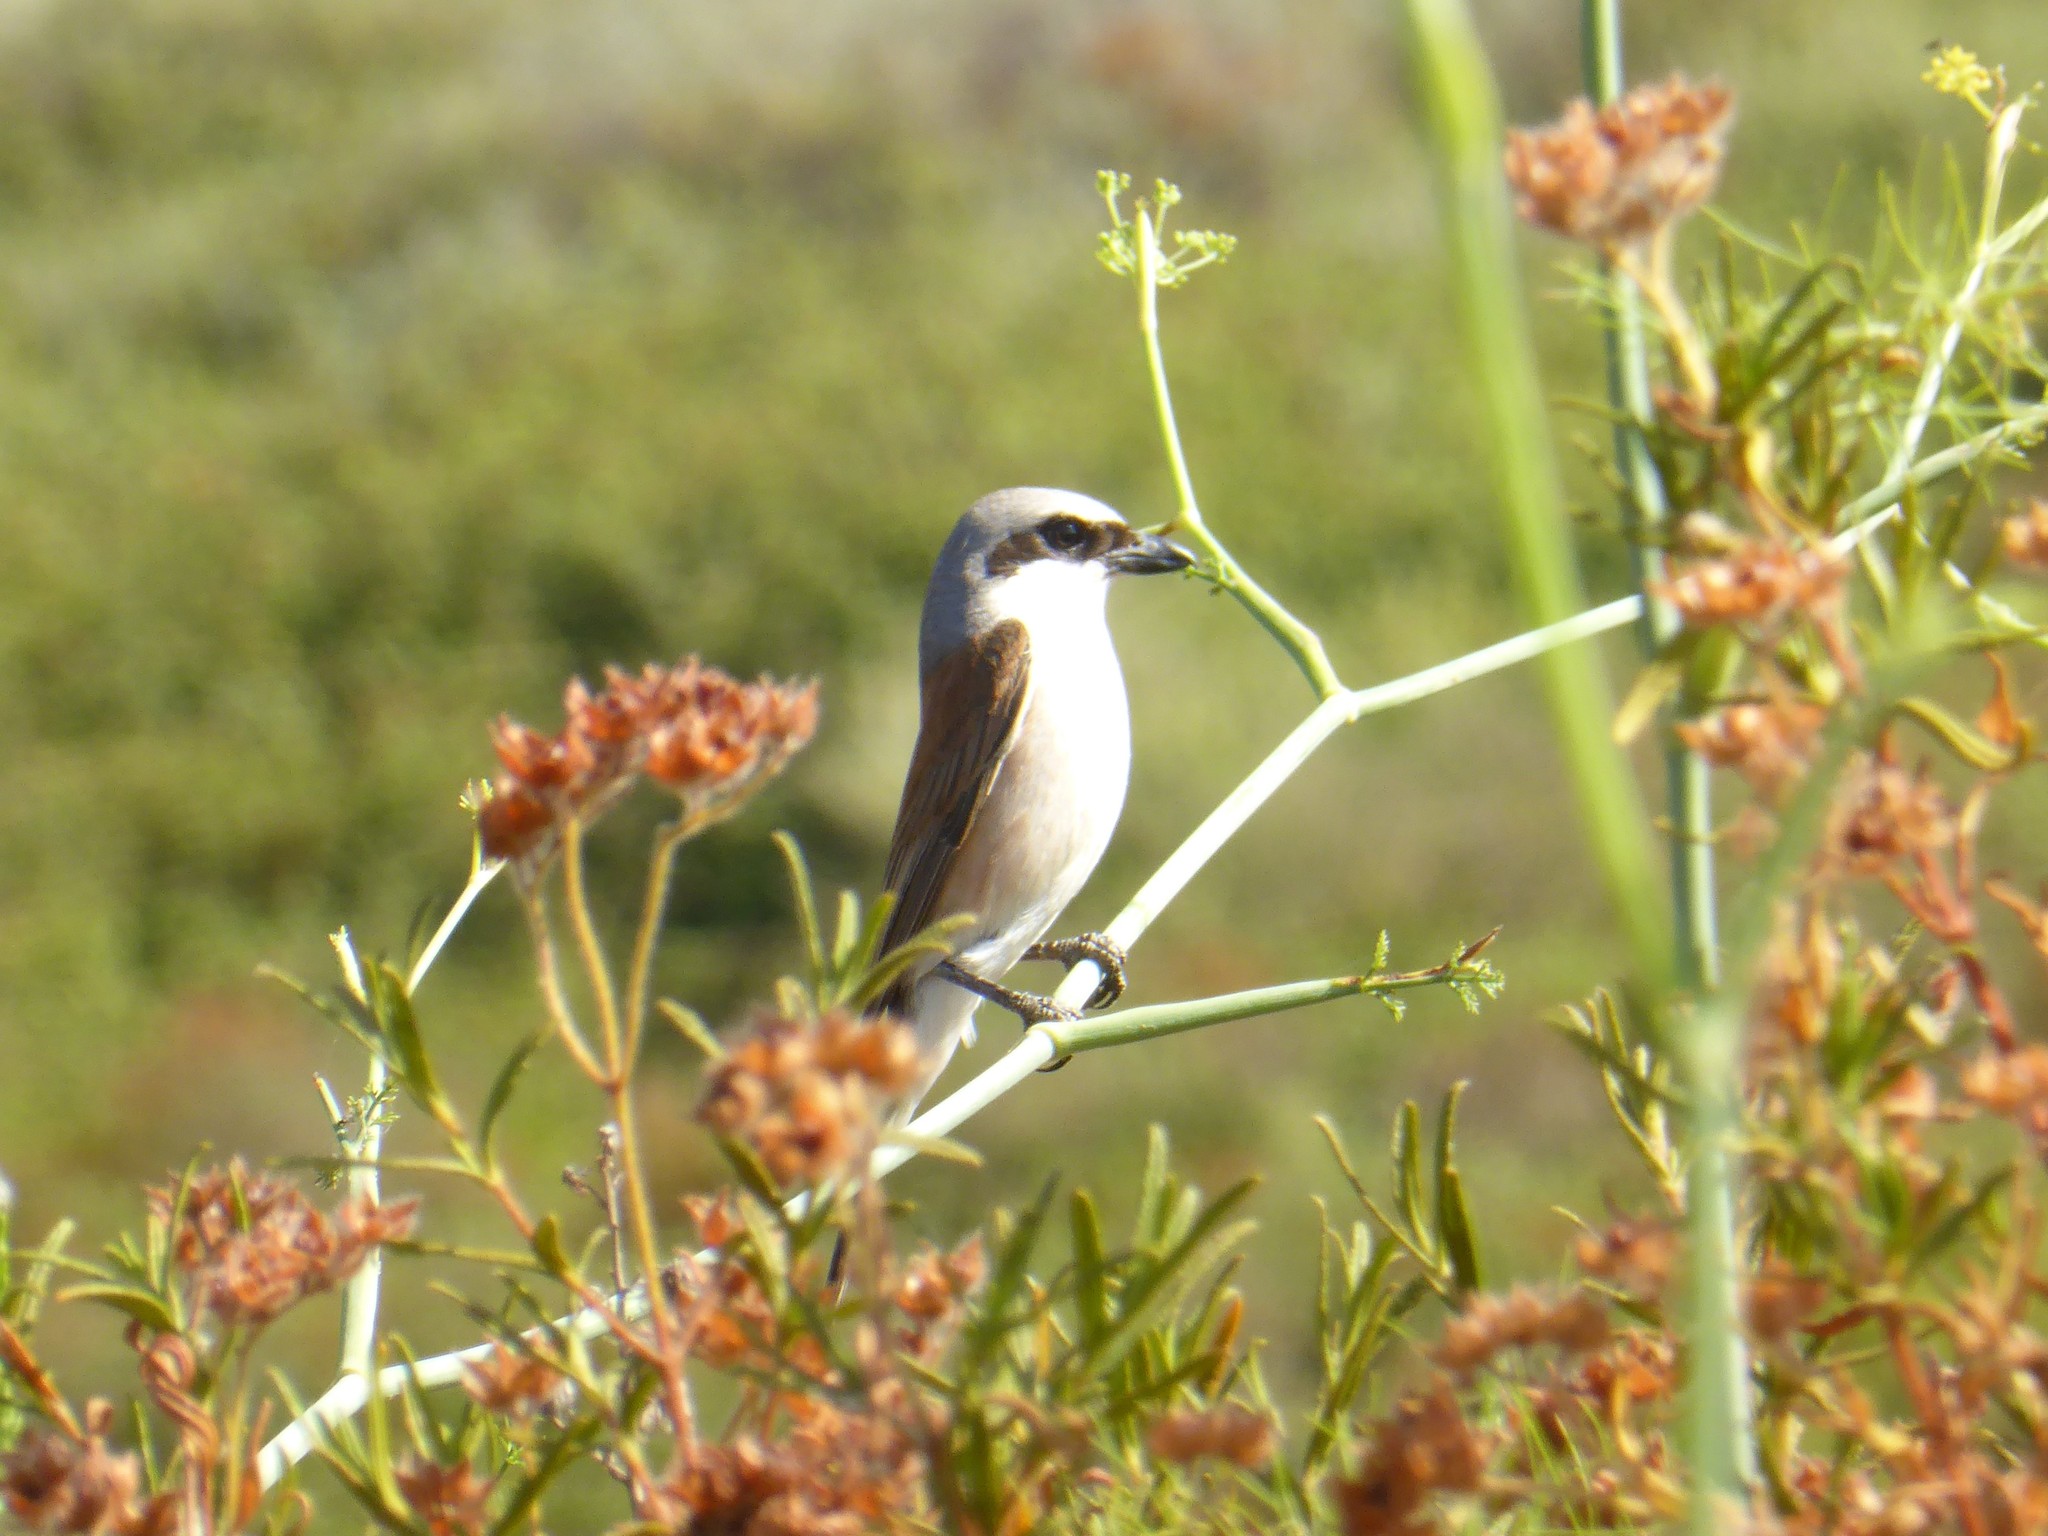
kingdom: Animalia
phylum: Chordata
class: Aves
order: Passeriformes
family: Laniidae
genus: Lanius
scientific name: Lanius collurio
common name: Red-backed shrike
